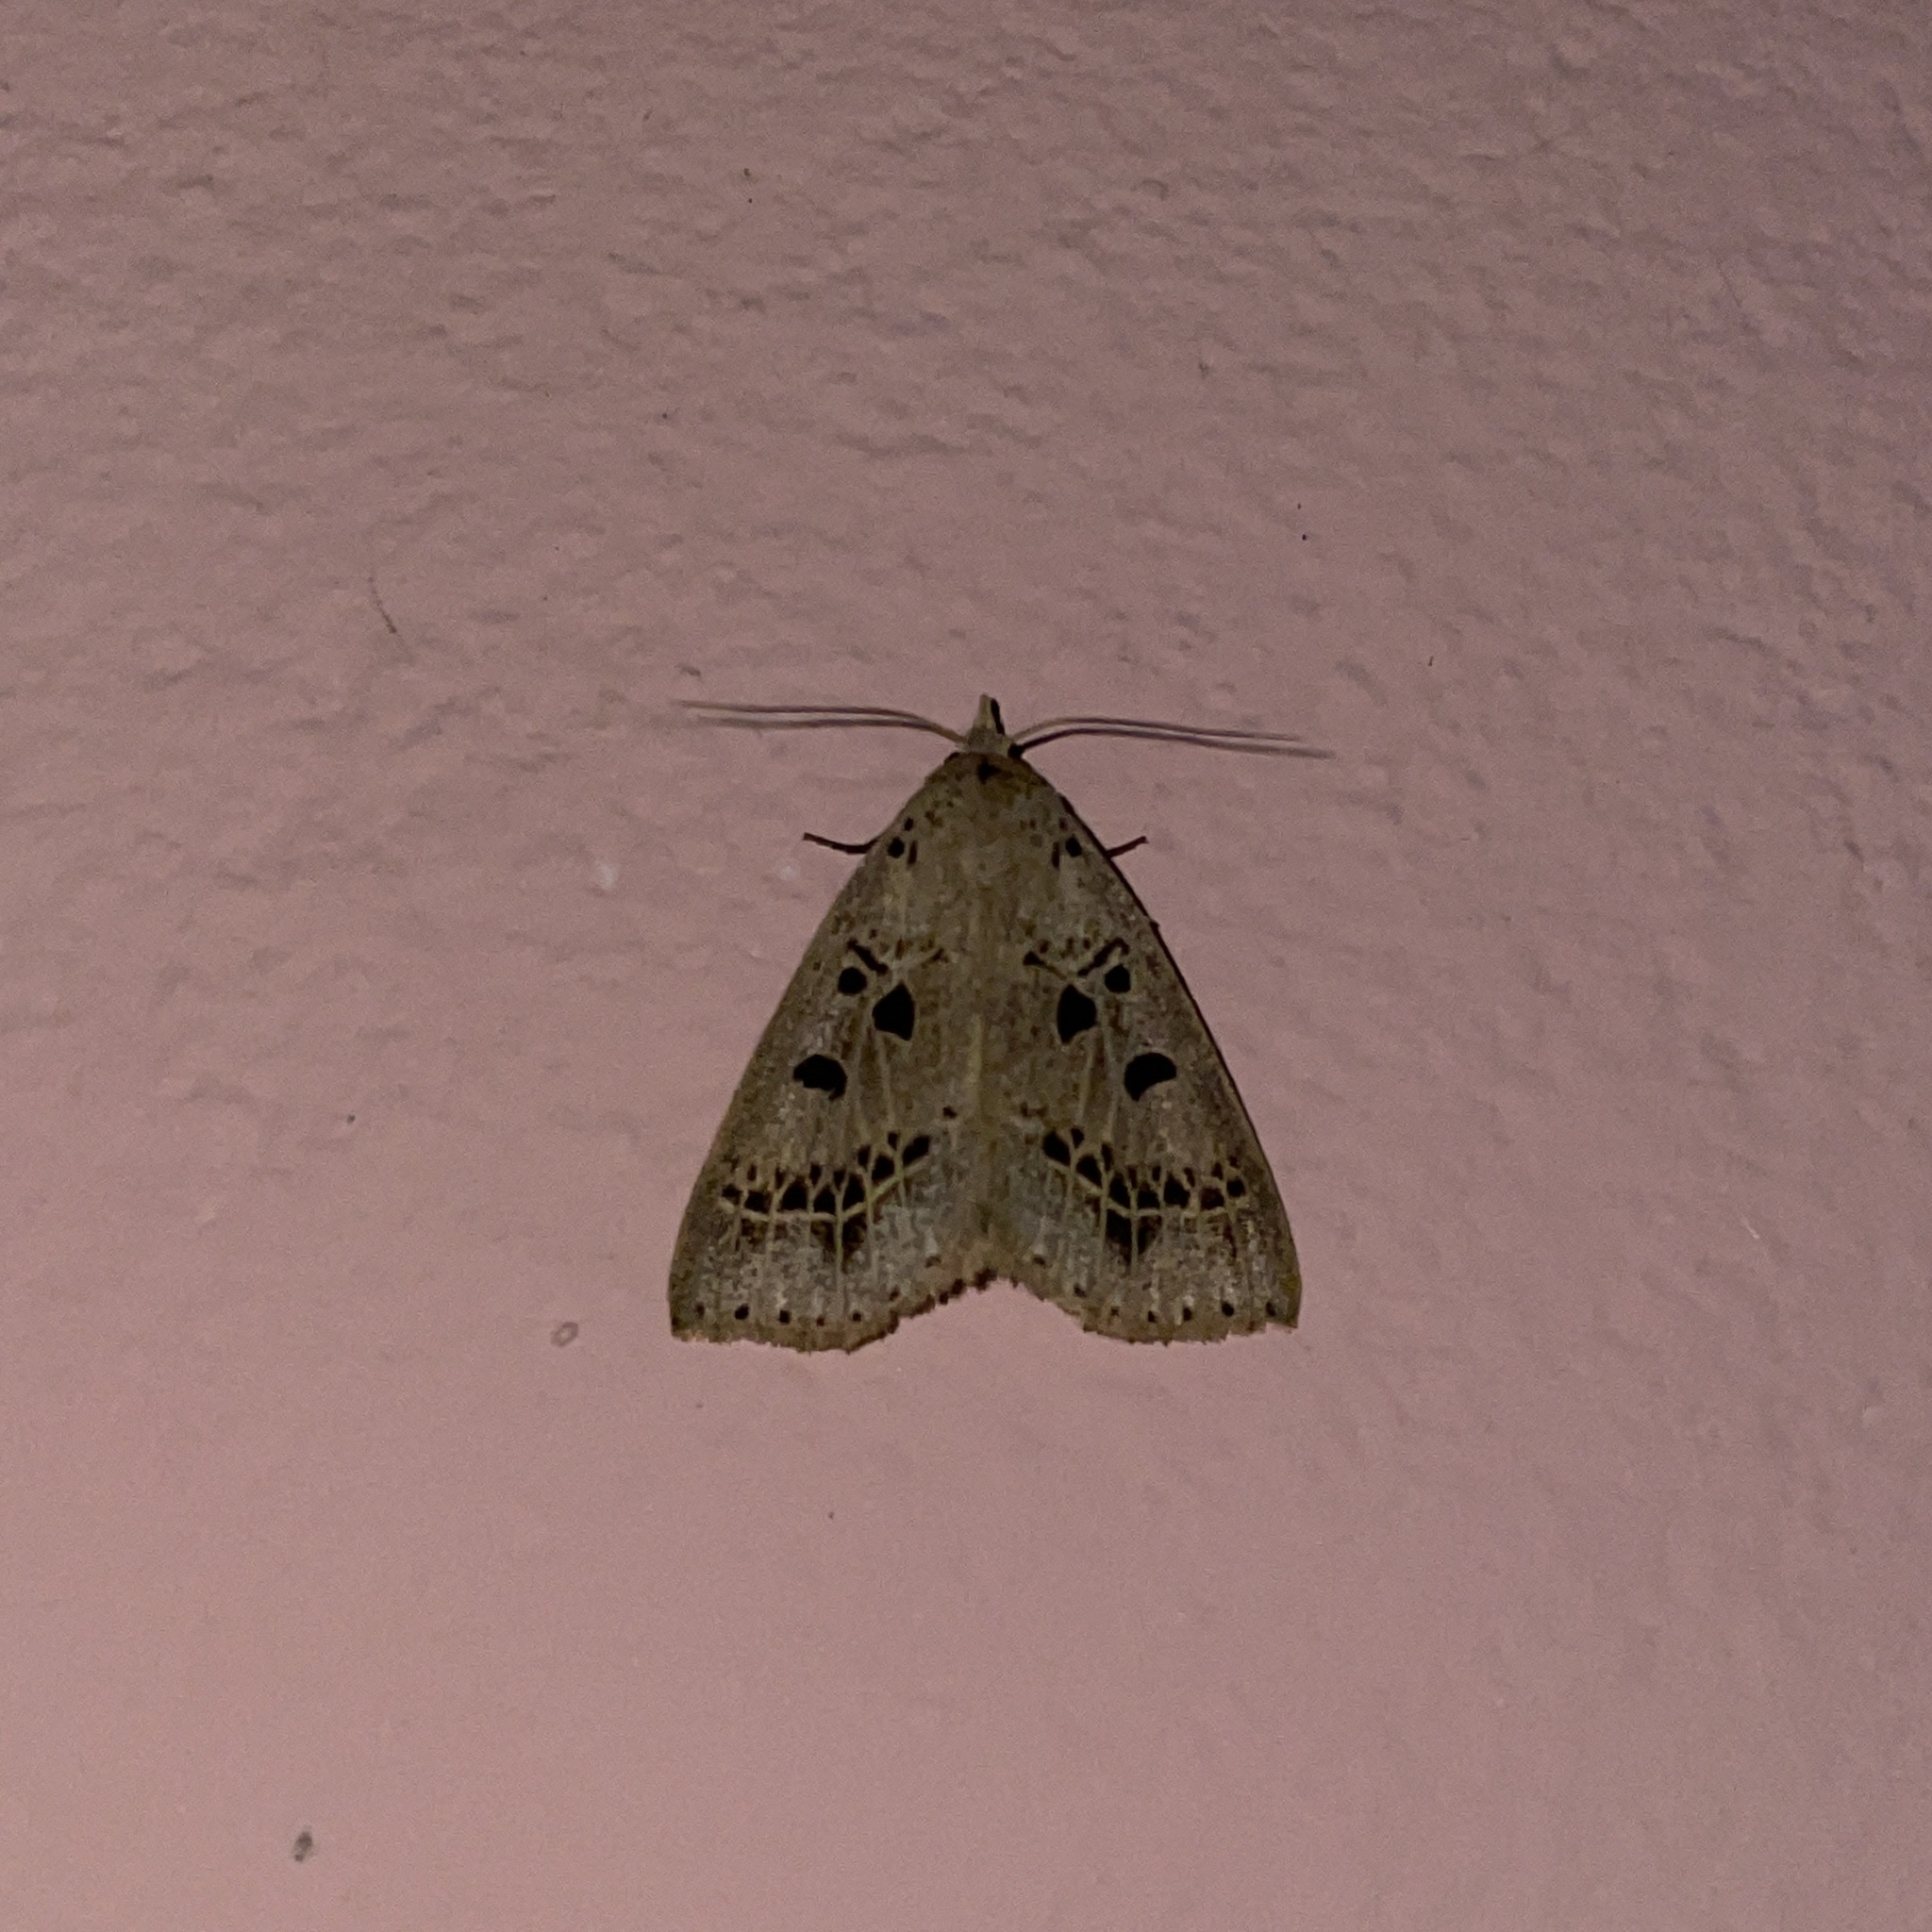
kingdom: Animalia
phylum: Arthropoda
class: Insecta
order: Lepidoptera
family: Erebidae
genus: Scolecocampa
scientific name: Scolecocampa Herminodes atrosignata
